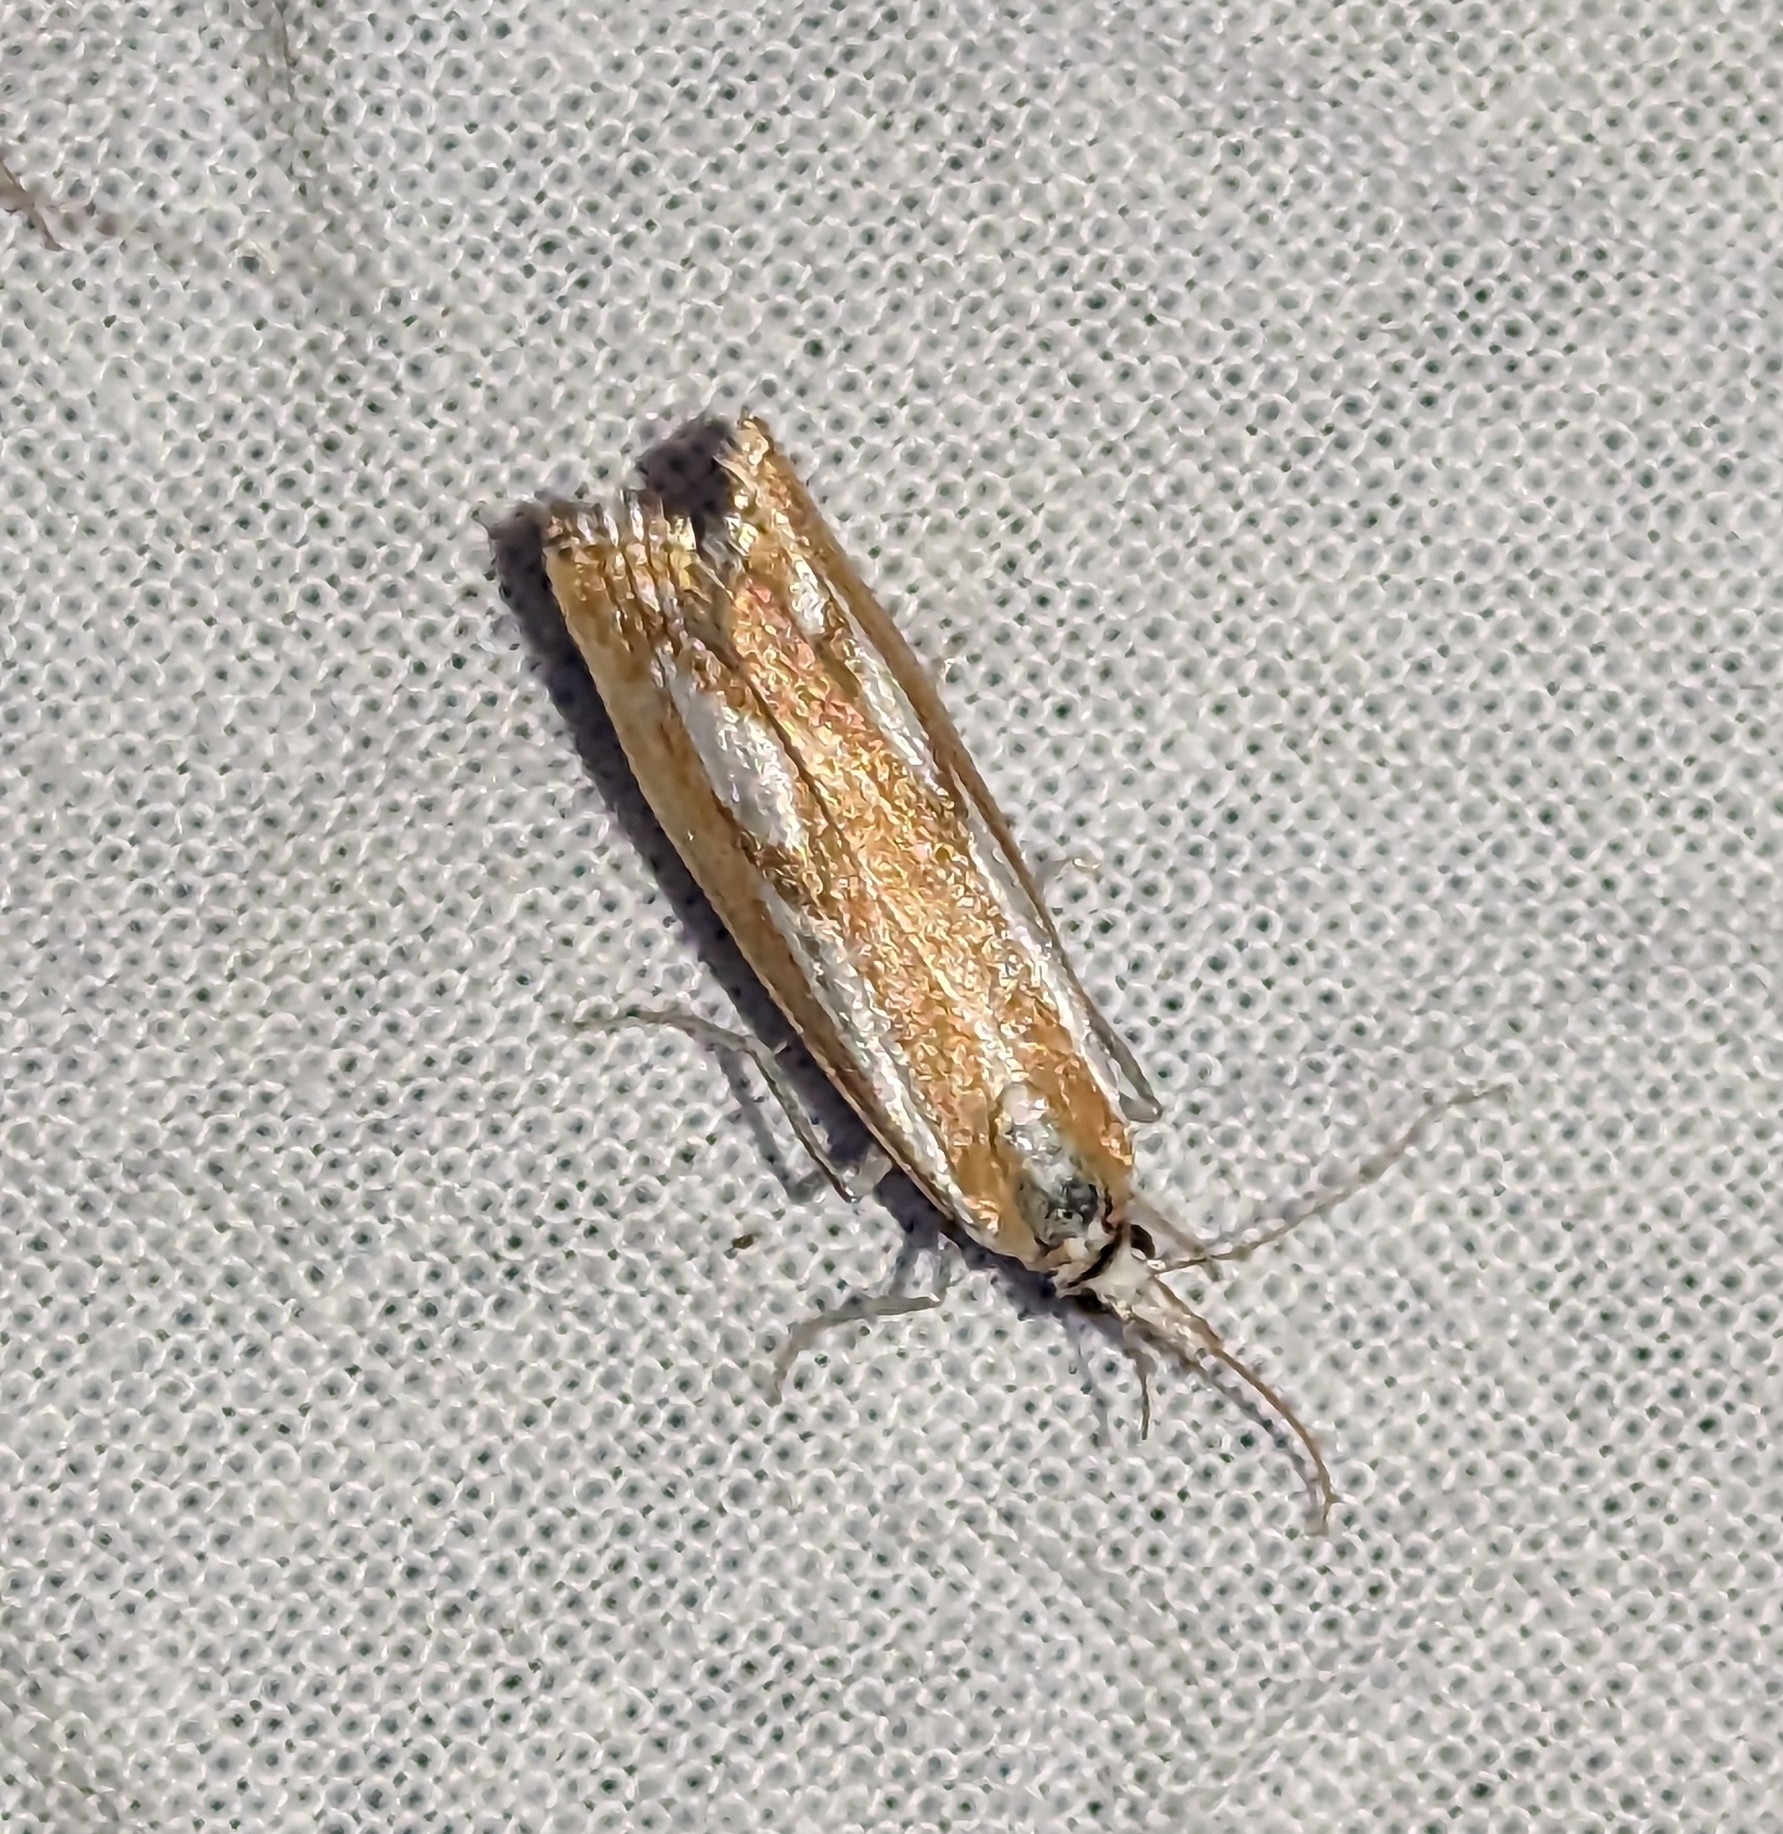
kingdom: Animalia
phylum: Arthropoda
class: Insecta
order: Lepidoptera
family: Crambidae
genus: Catoptria
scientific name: Catoptria latiradiellus
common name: Two-banded catoptria moth
